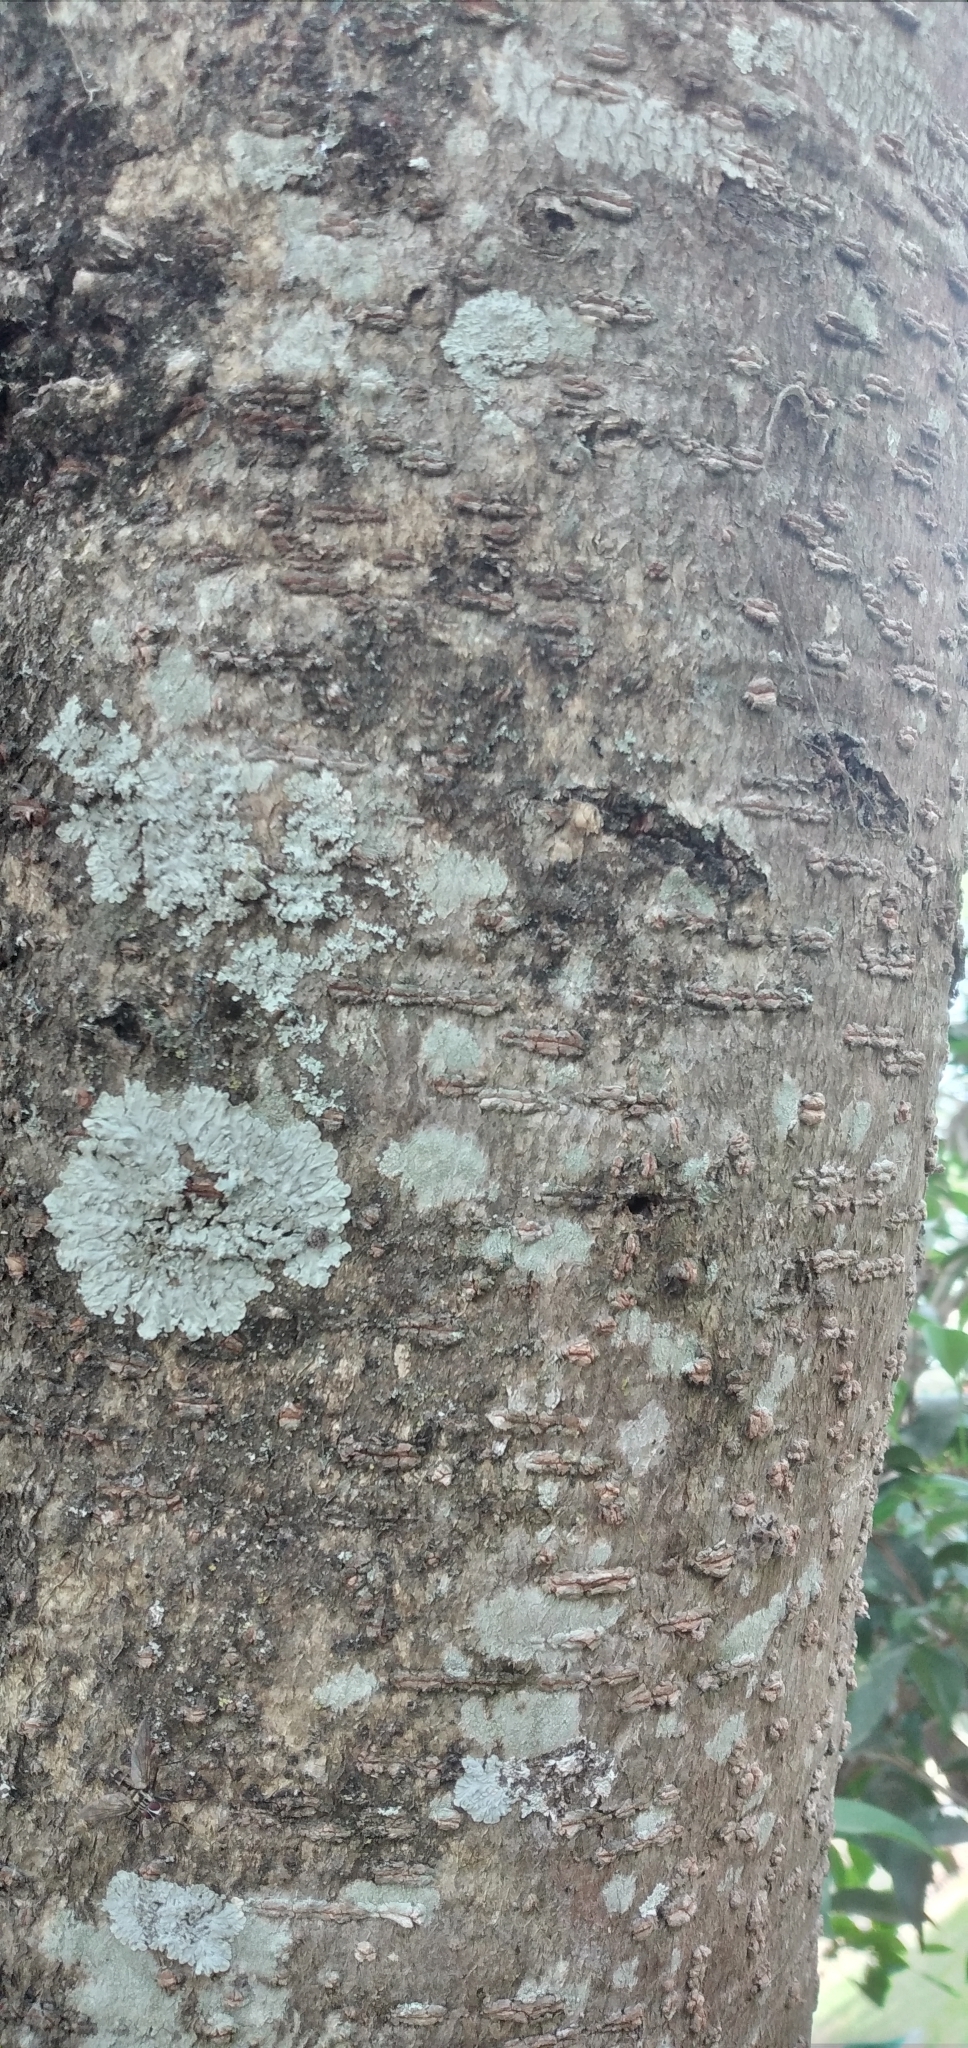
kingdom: Plantae
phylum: Tracheophyta
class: Magnoliopsida
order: Fabales
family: Fabaceae
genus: Enterolobium
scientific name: Enterolobium contortisiliquum
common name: Pacara earpod tree
